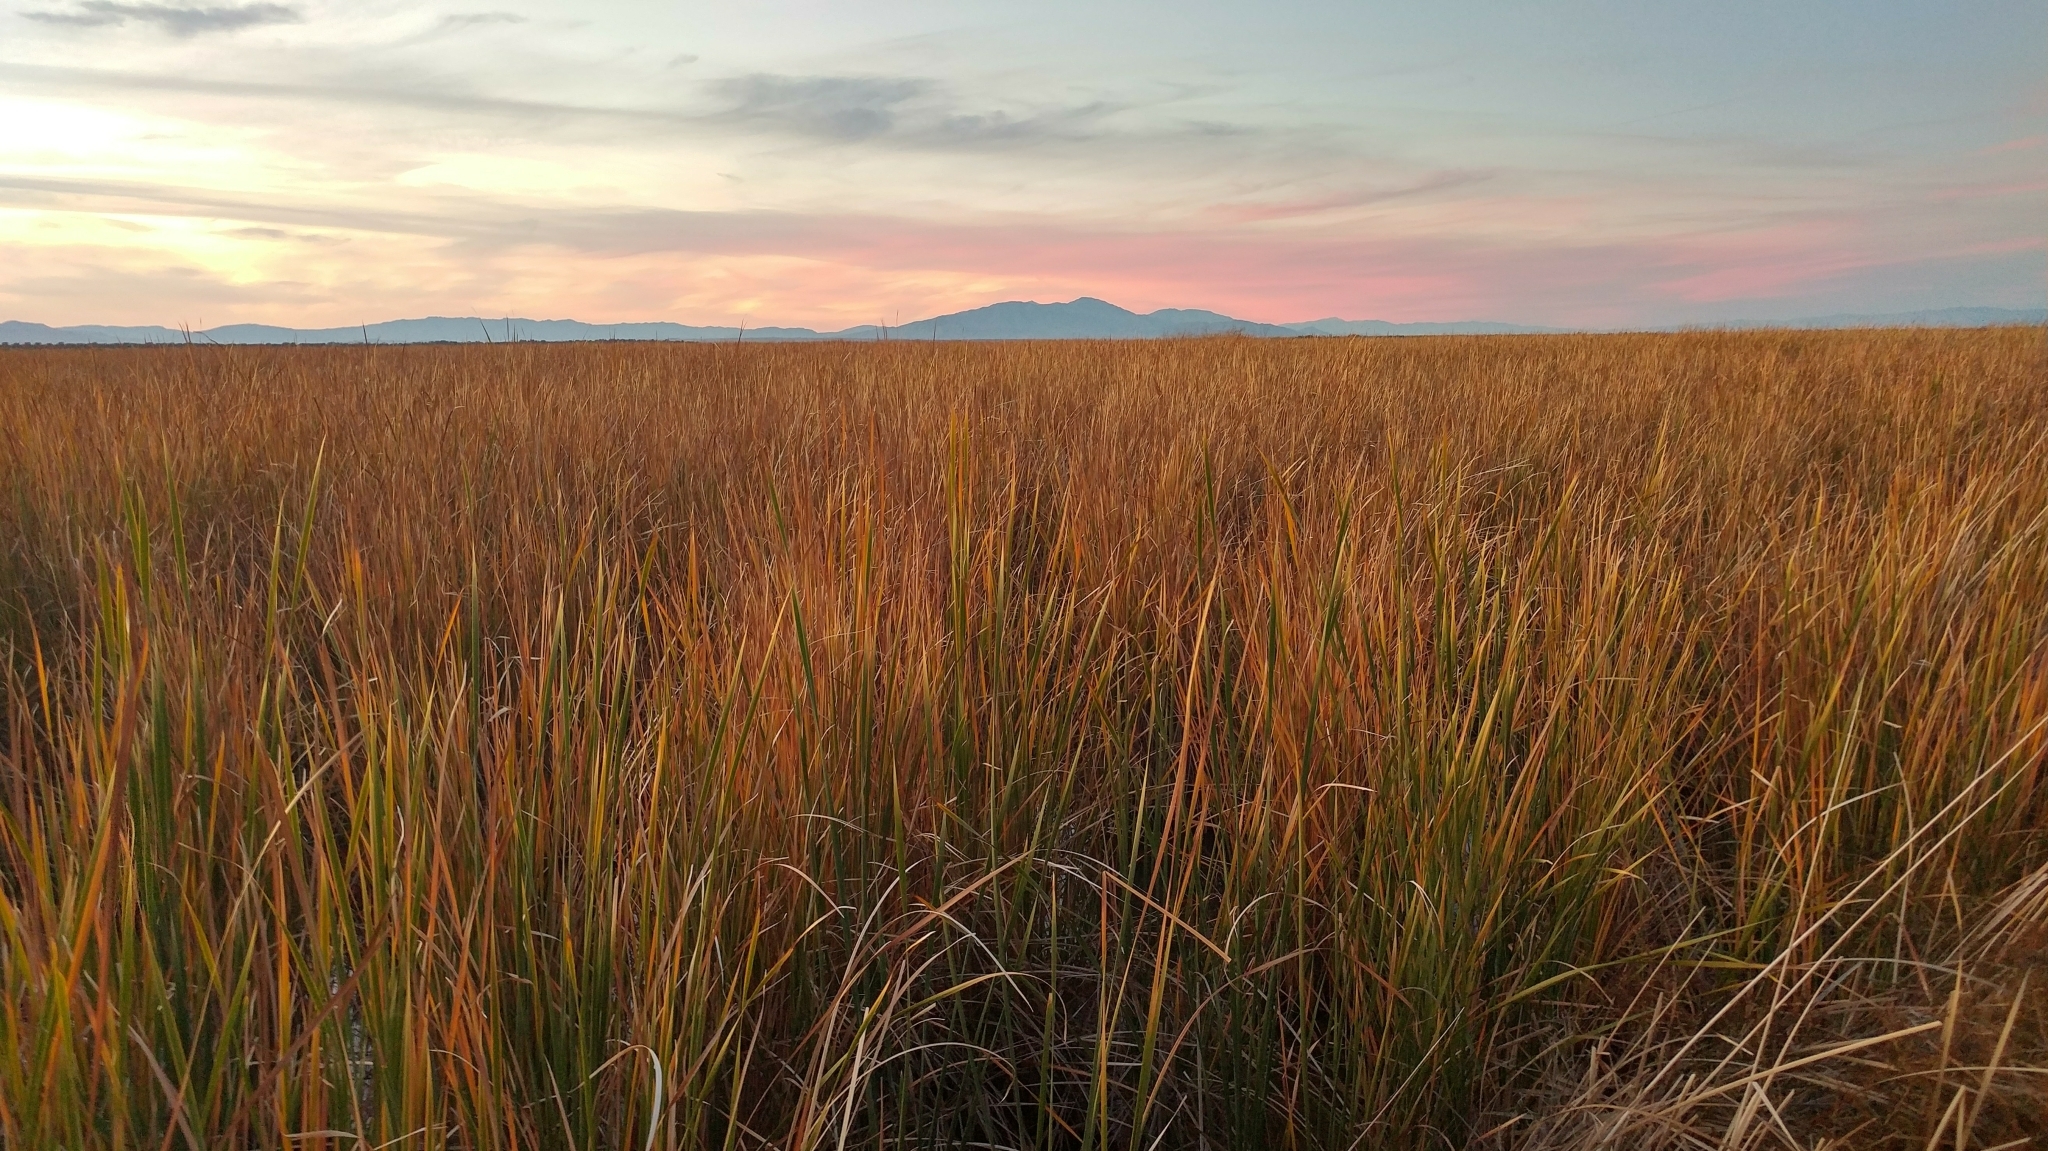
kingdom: Plantae
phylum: Tracheophyta
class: Liliopsida
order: Poales
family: Typhaceae
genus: Typha
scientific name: Typha domingensis
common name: Southern cattail
